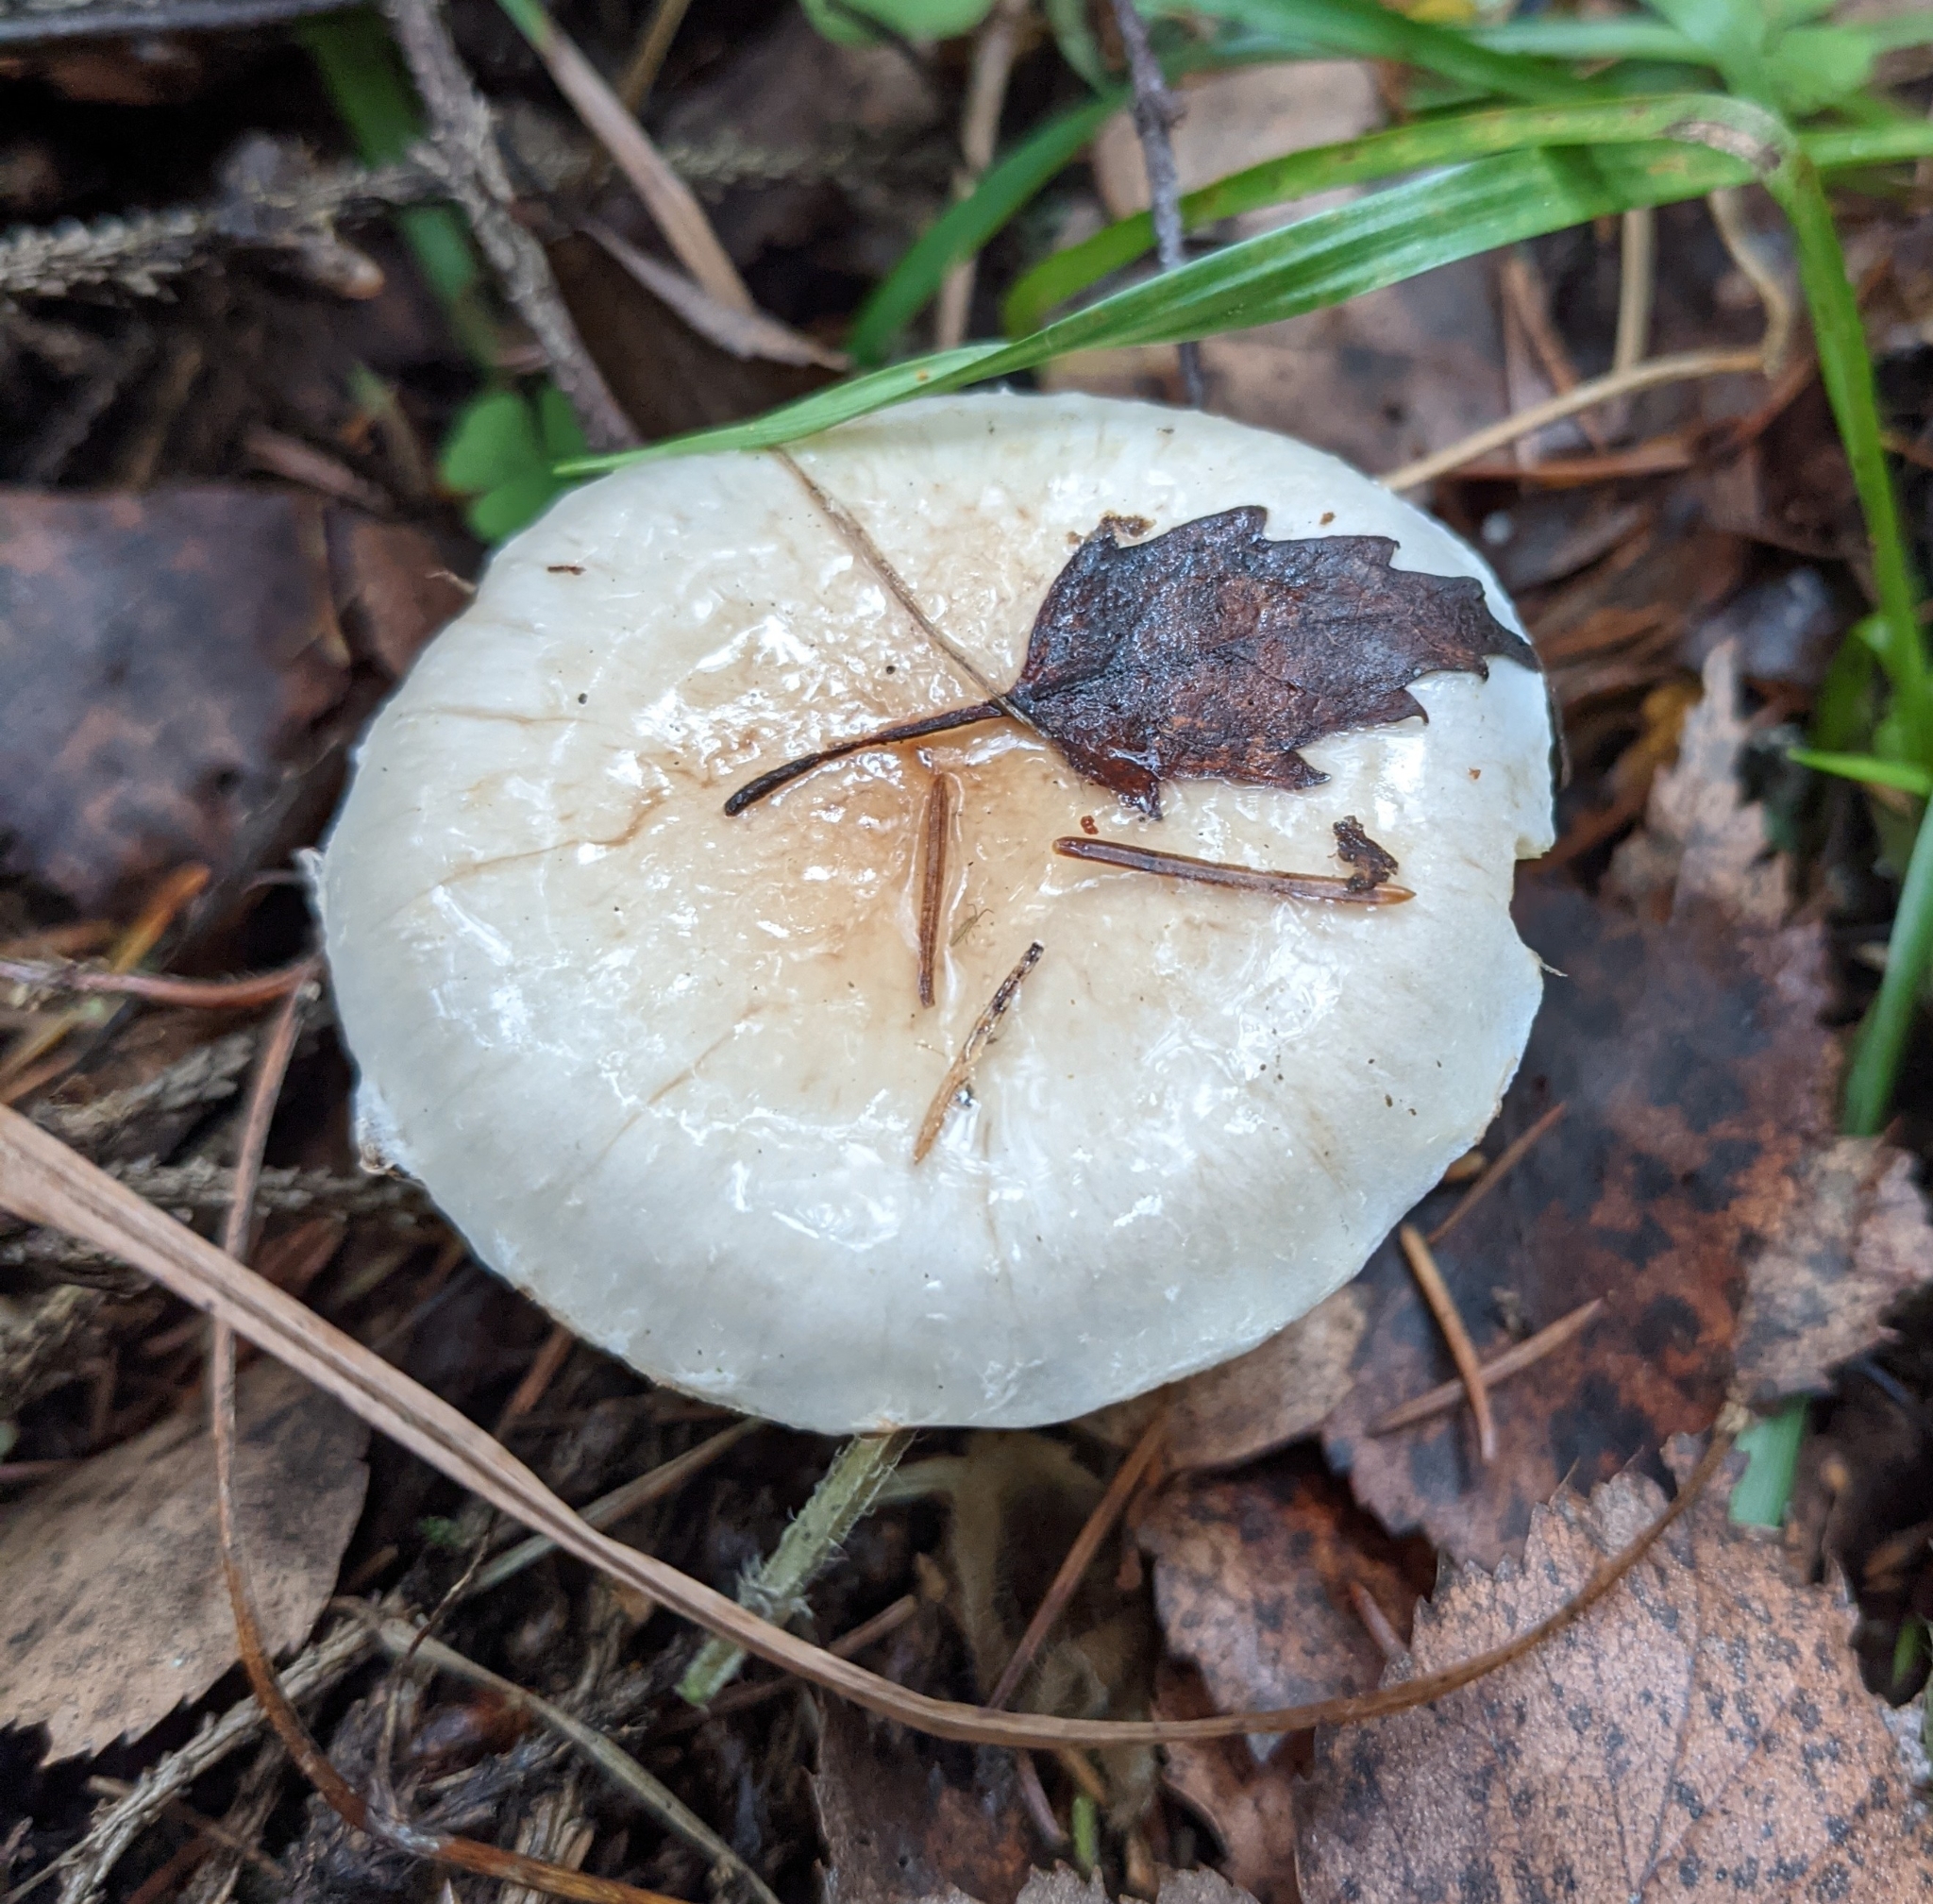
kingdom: Fungi
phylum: Basidiomycota
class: Agaricomycetes
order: Agaricales
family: Strophariaceae
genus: Pholiota
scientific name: Pholiota lenta
